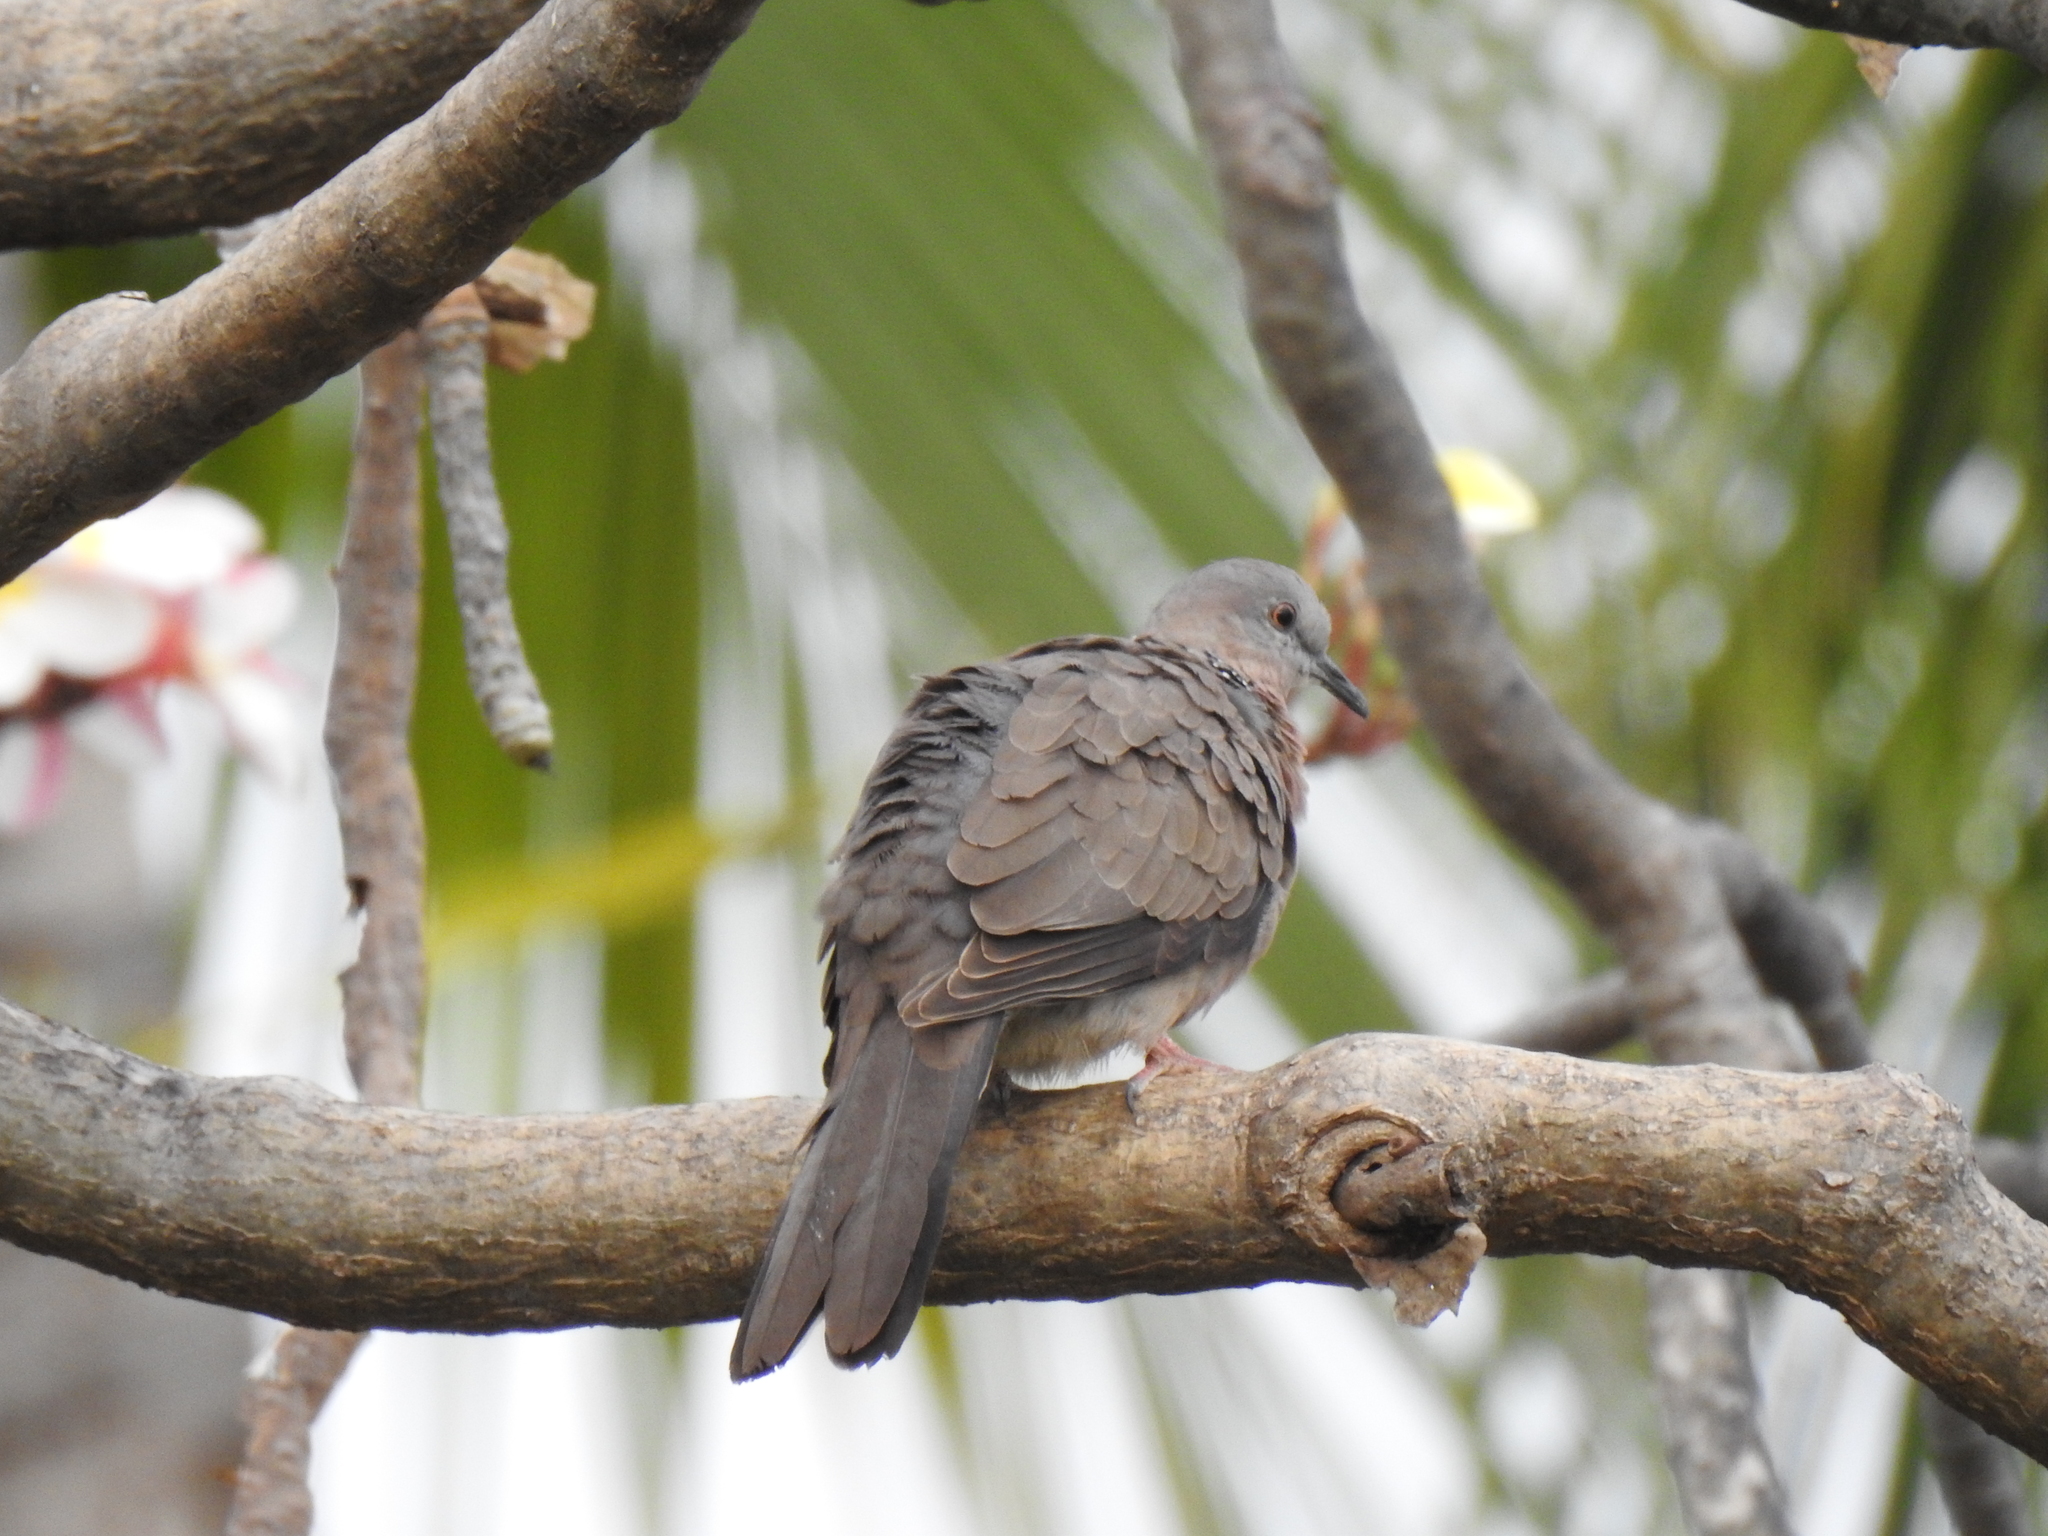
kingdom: Animalia
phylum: Chordata
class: Aves
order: Columbiformes
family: Columbidae
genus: Spilopelia
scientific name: Spilopelia chinensis
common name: Spotted dove
